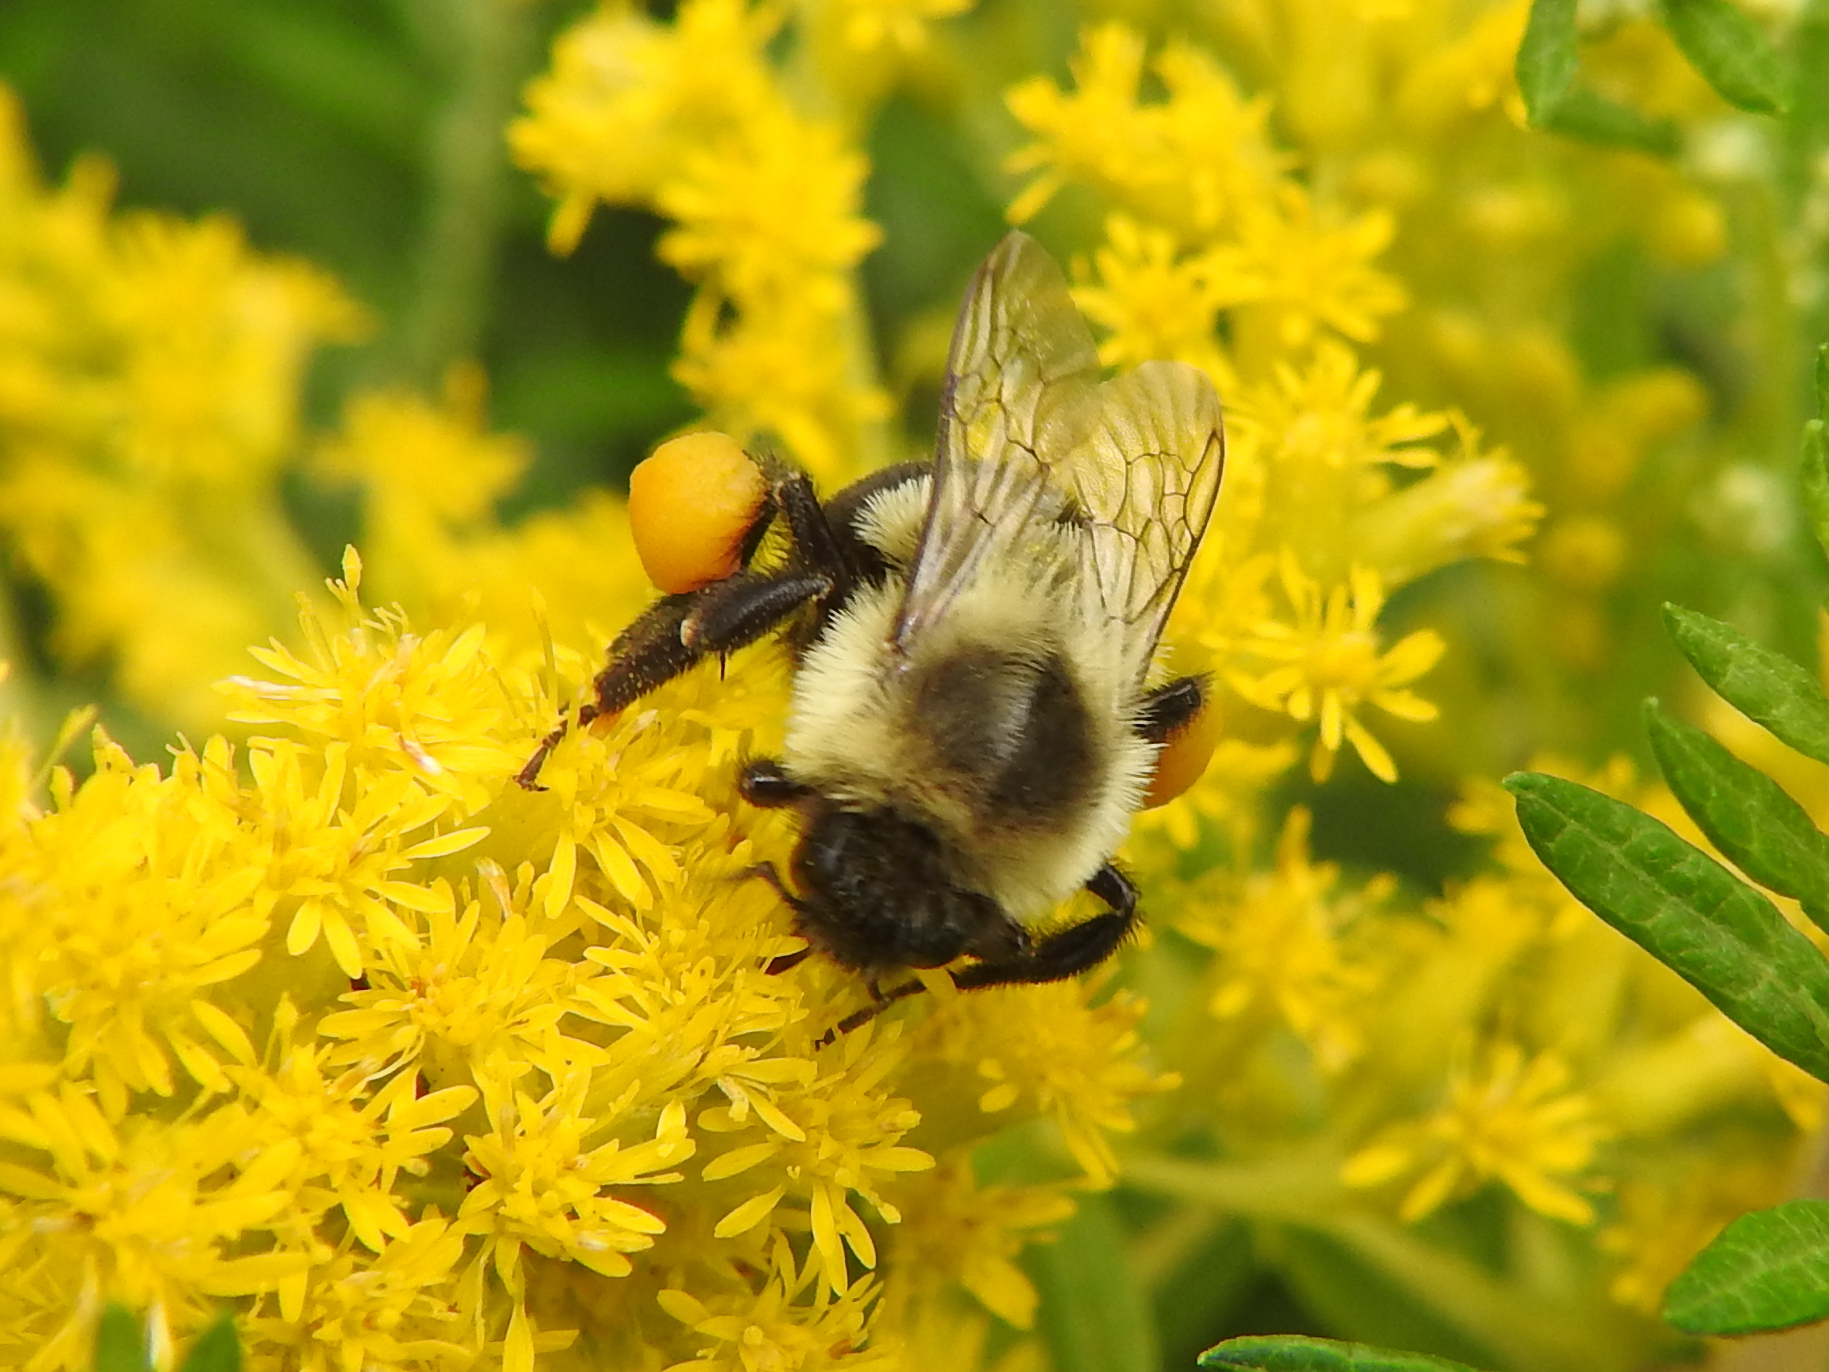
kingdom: Animalia
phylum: Arthropoda
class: Insecta
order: Hymenoptera
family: Apidae
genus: Bombus
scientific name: Bombus impatiens
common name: Common eastern bumble bee
